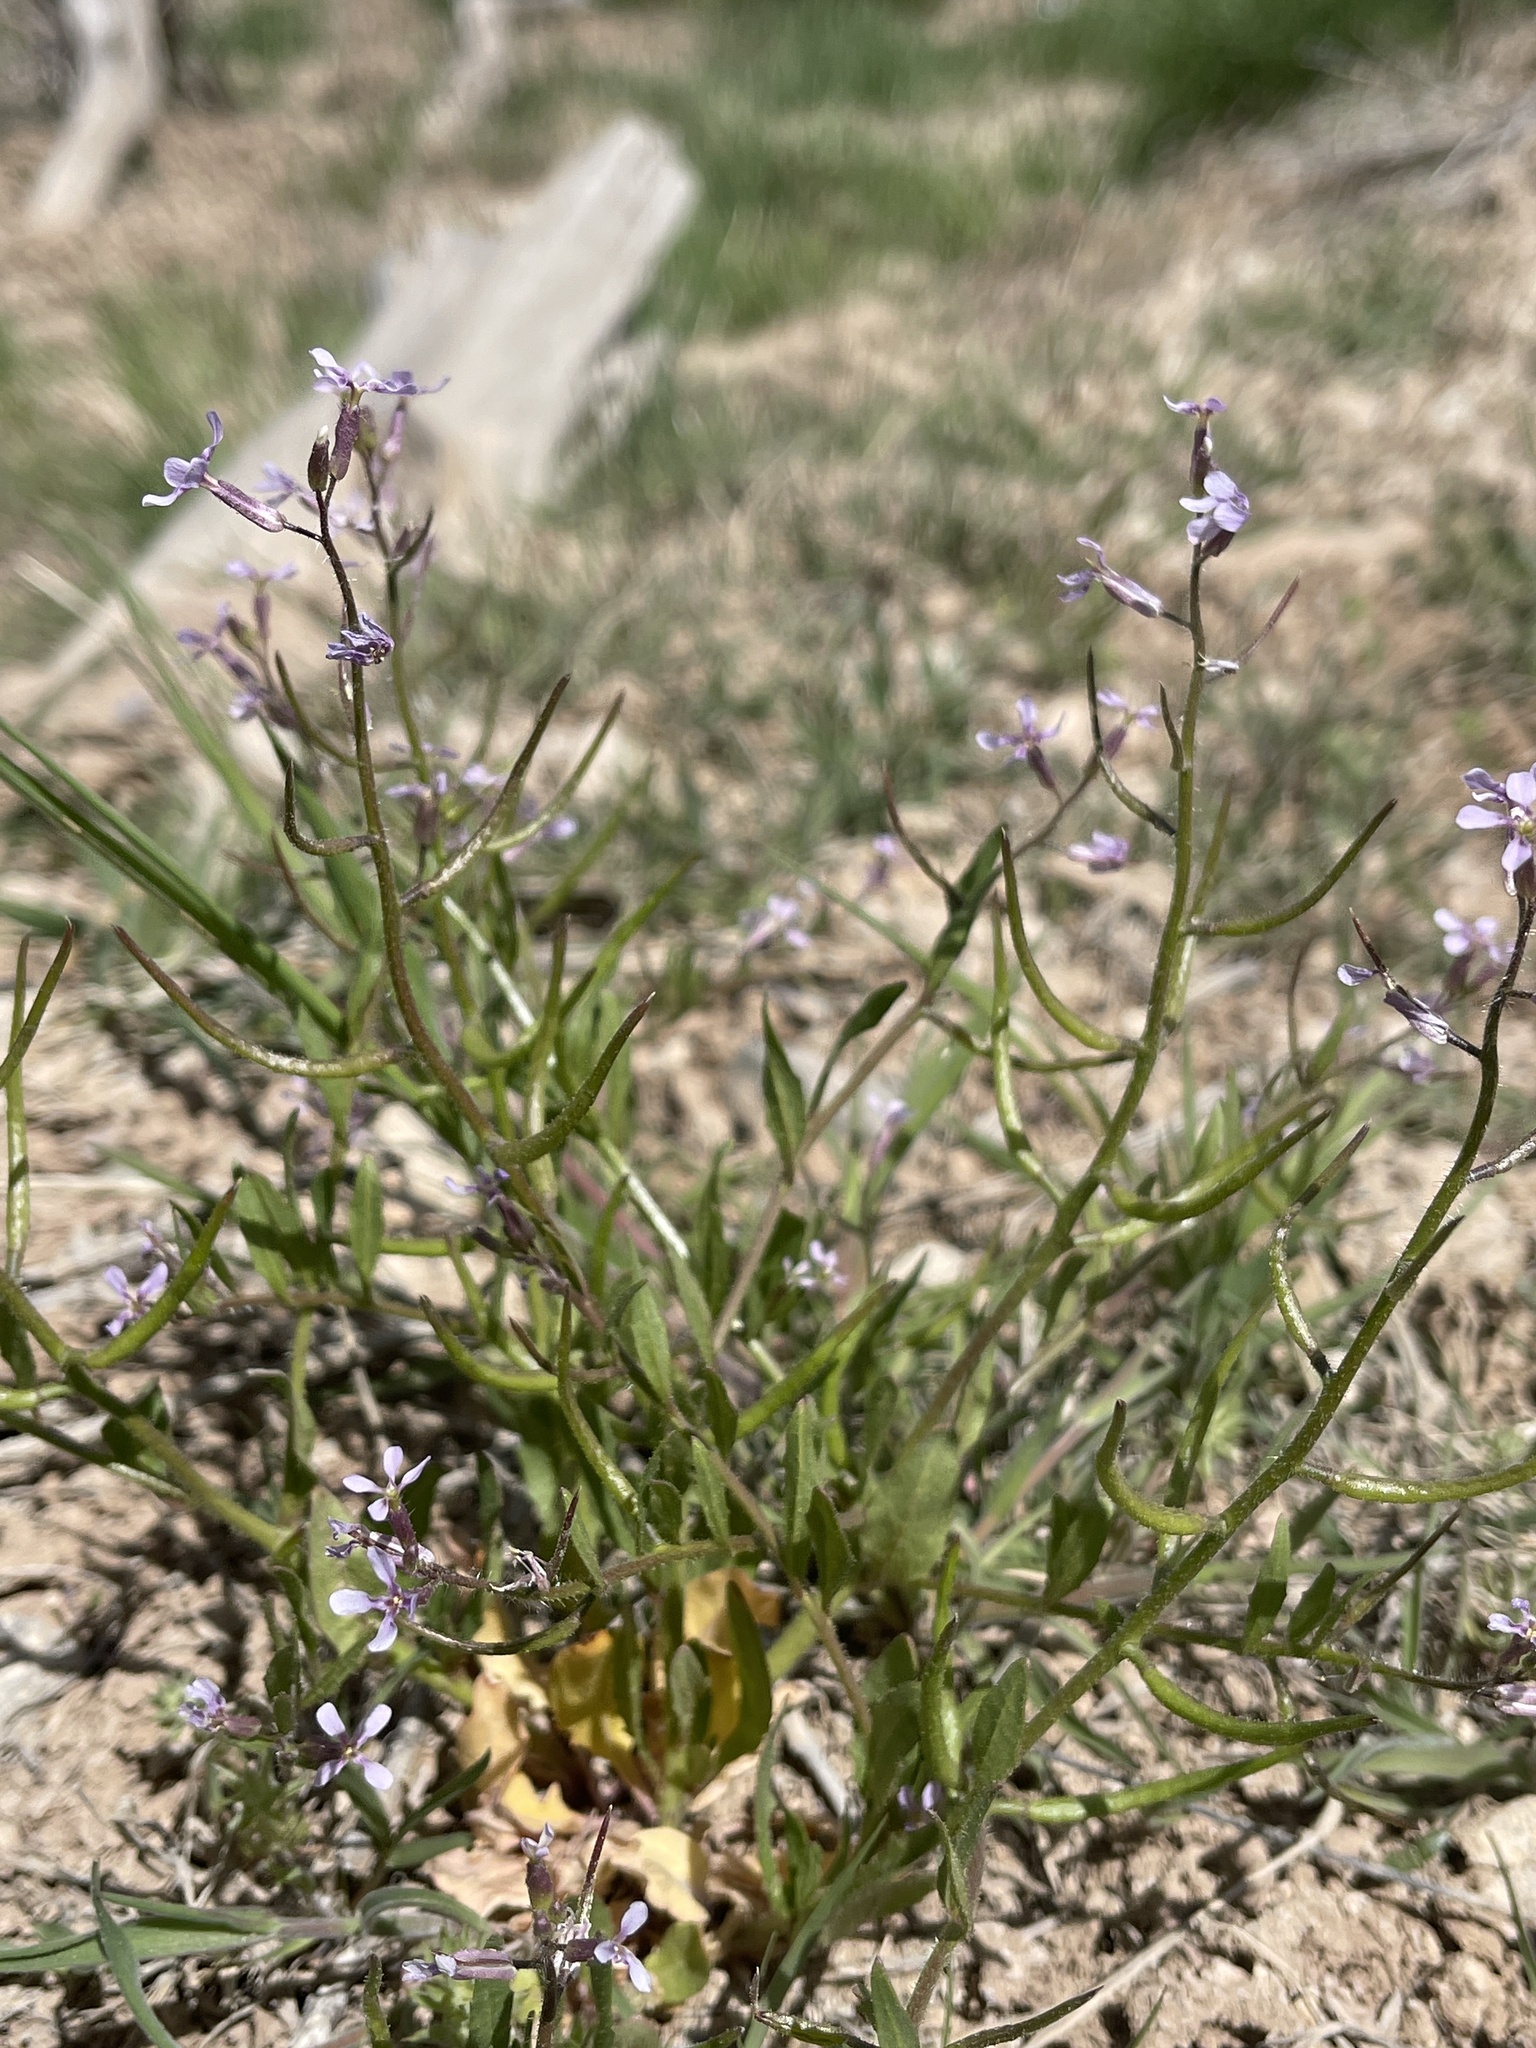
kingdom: Plantae
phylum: Tracheophyta
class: Magnoliopsida
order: Brassicales
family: Brassicaceae
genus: Chorispora
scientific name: Chorispora tenella
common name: Crossflower
